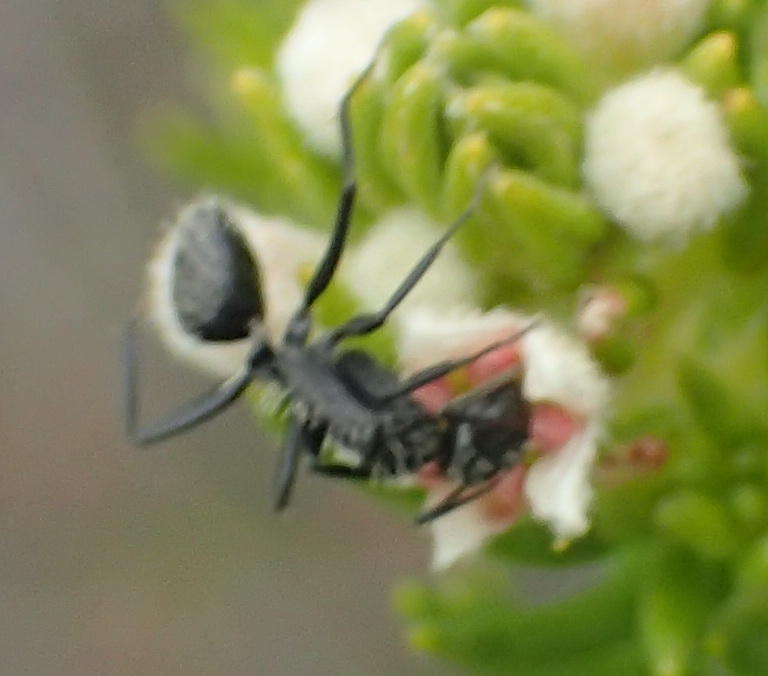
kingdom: Animalia
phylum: Arthropoda
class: Insecta
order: Hymenoptera
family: Formicidae
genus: Camponotus
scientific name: Camponotus niveosetosus
